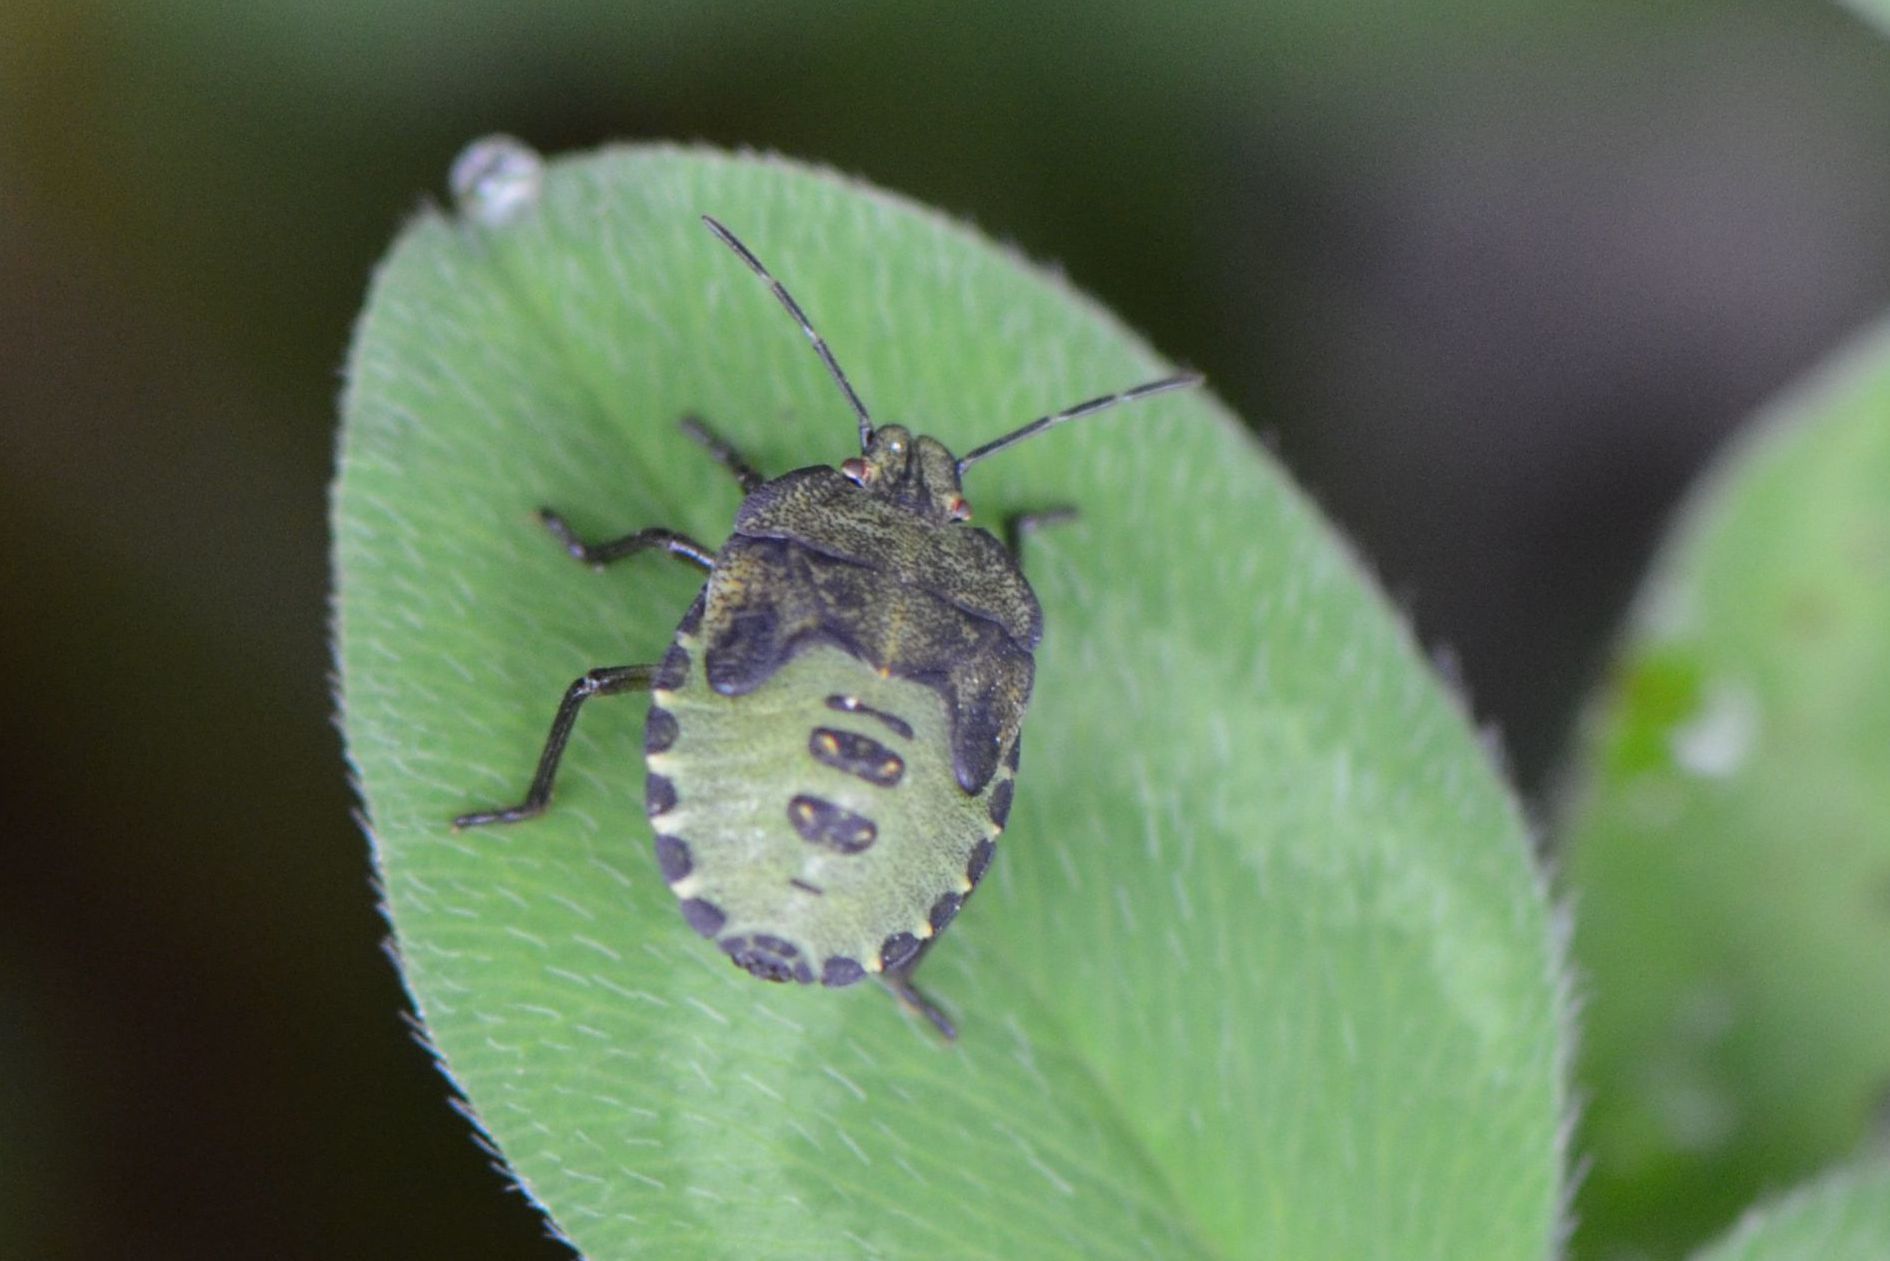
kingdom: Animalia
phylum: Arthropoda
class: Insecta
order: Hemiptera
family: Pentatomidae
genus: Palomena
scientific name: Palomena prasina
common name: Green shieldbug
